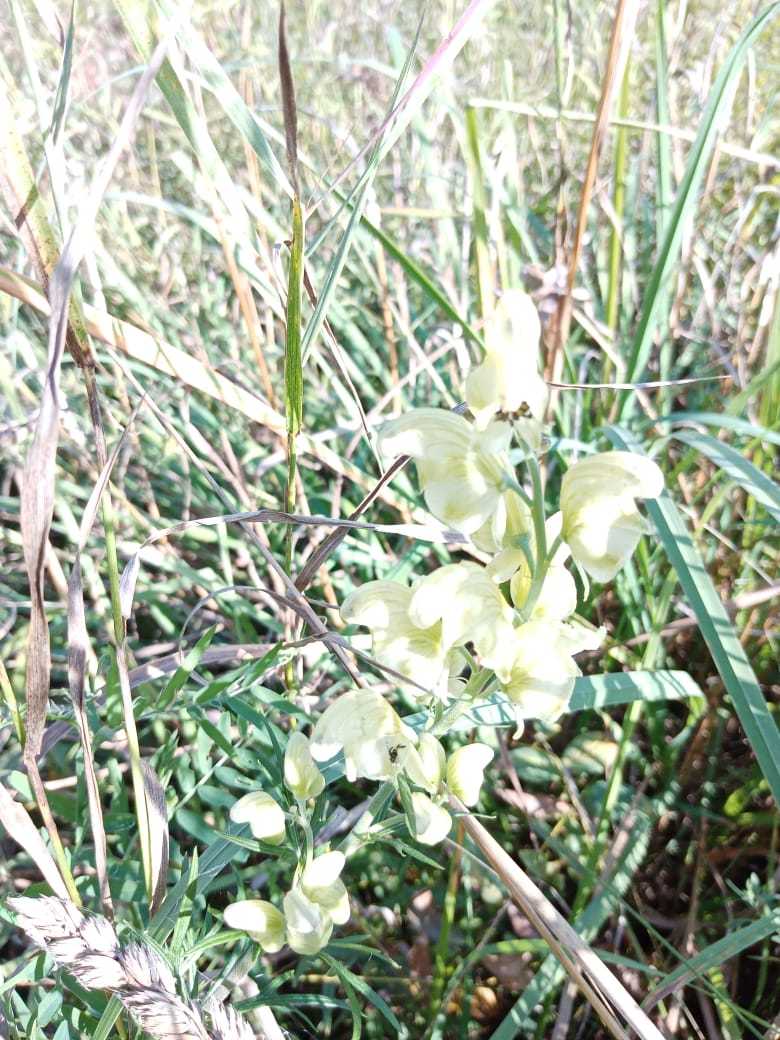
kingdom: Plantae
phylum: Tracheophyta
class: Magnoliopsida
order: Ranunculales
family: Ranunculaceae
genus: Aconitum
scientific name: Aconitum anthora
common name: Yellow monkshood
